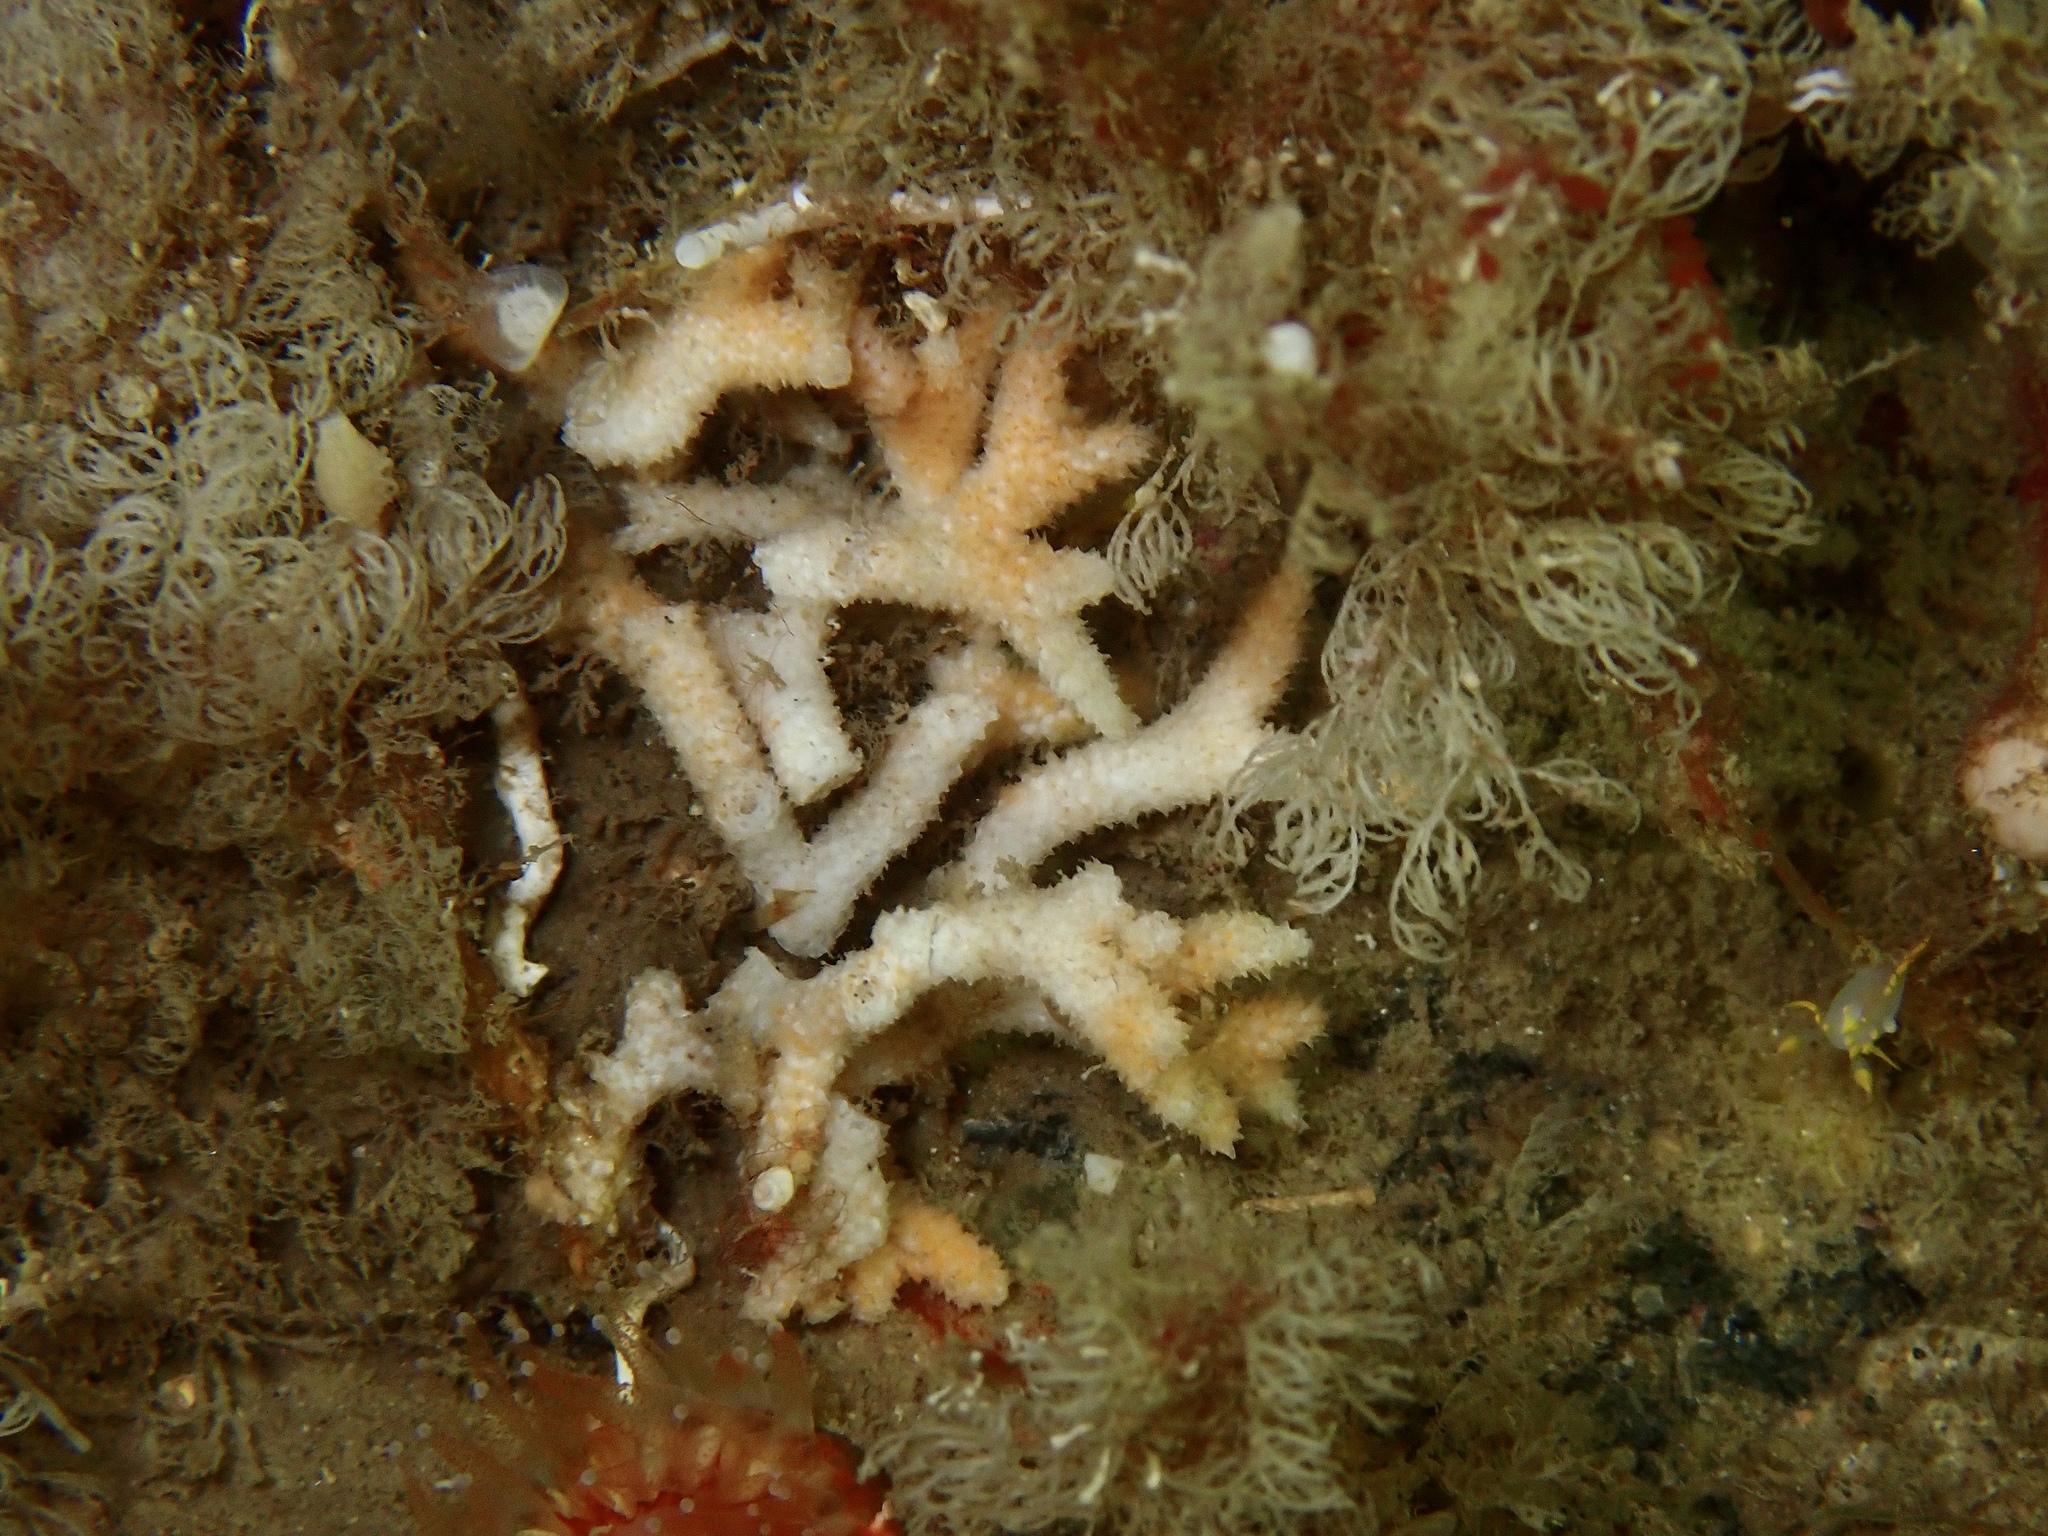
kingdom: Animalia
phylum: Bryozoa
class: Gymnolaemata
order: Cheilostomatida
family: Celleporidae
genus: Omalosecosa
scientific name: Omalosecosa ramulosa
